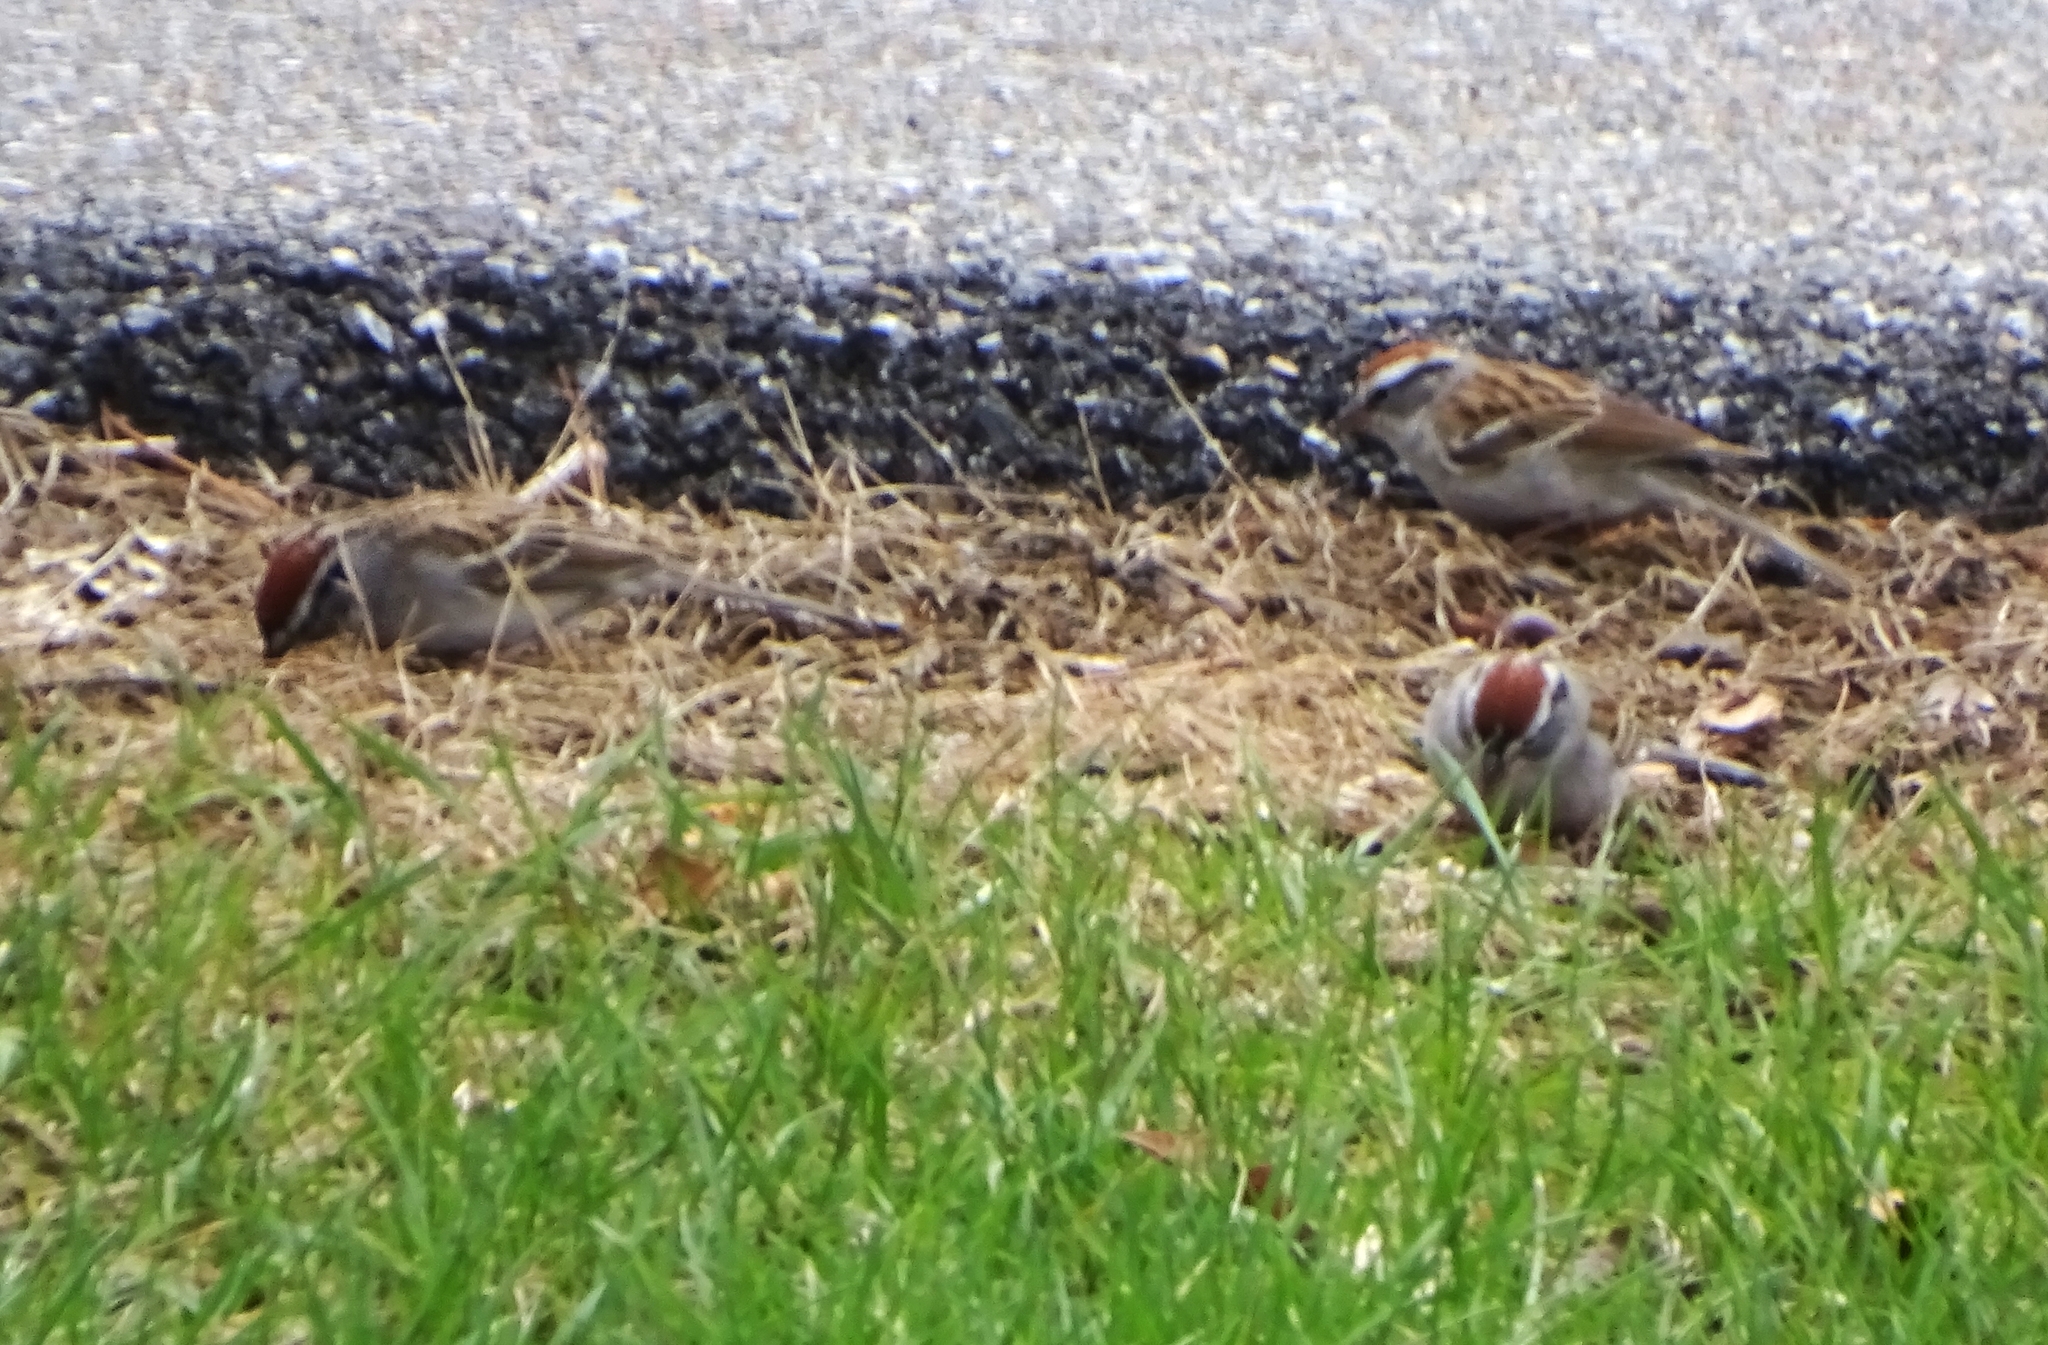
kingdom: Animalia
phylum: Chordata
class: Aves
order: Passeriformes
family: Passerellidae
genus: Spizella
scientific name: Spizella passerina
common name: Chipping sparrow
